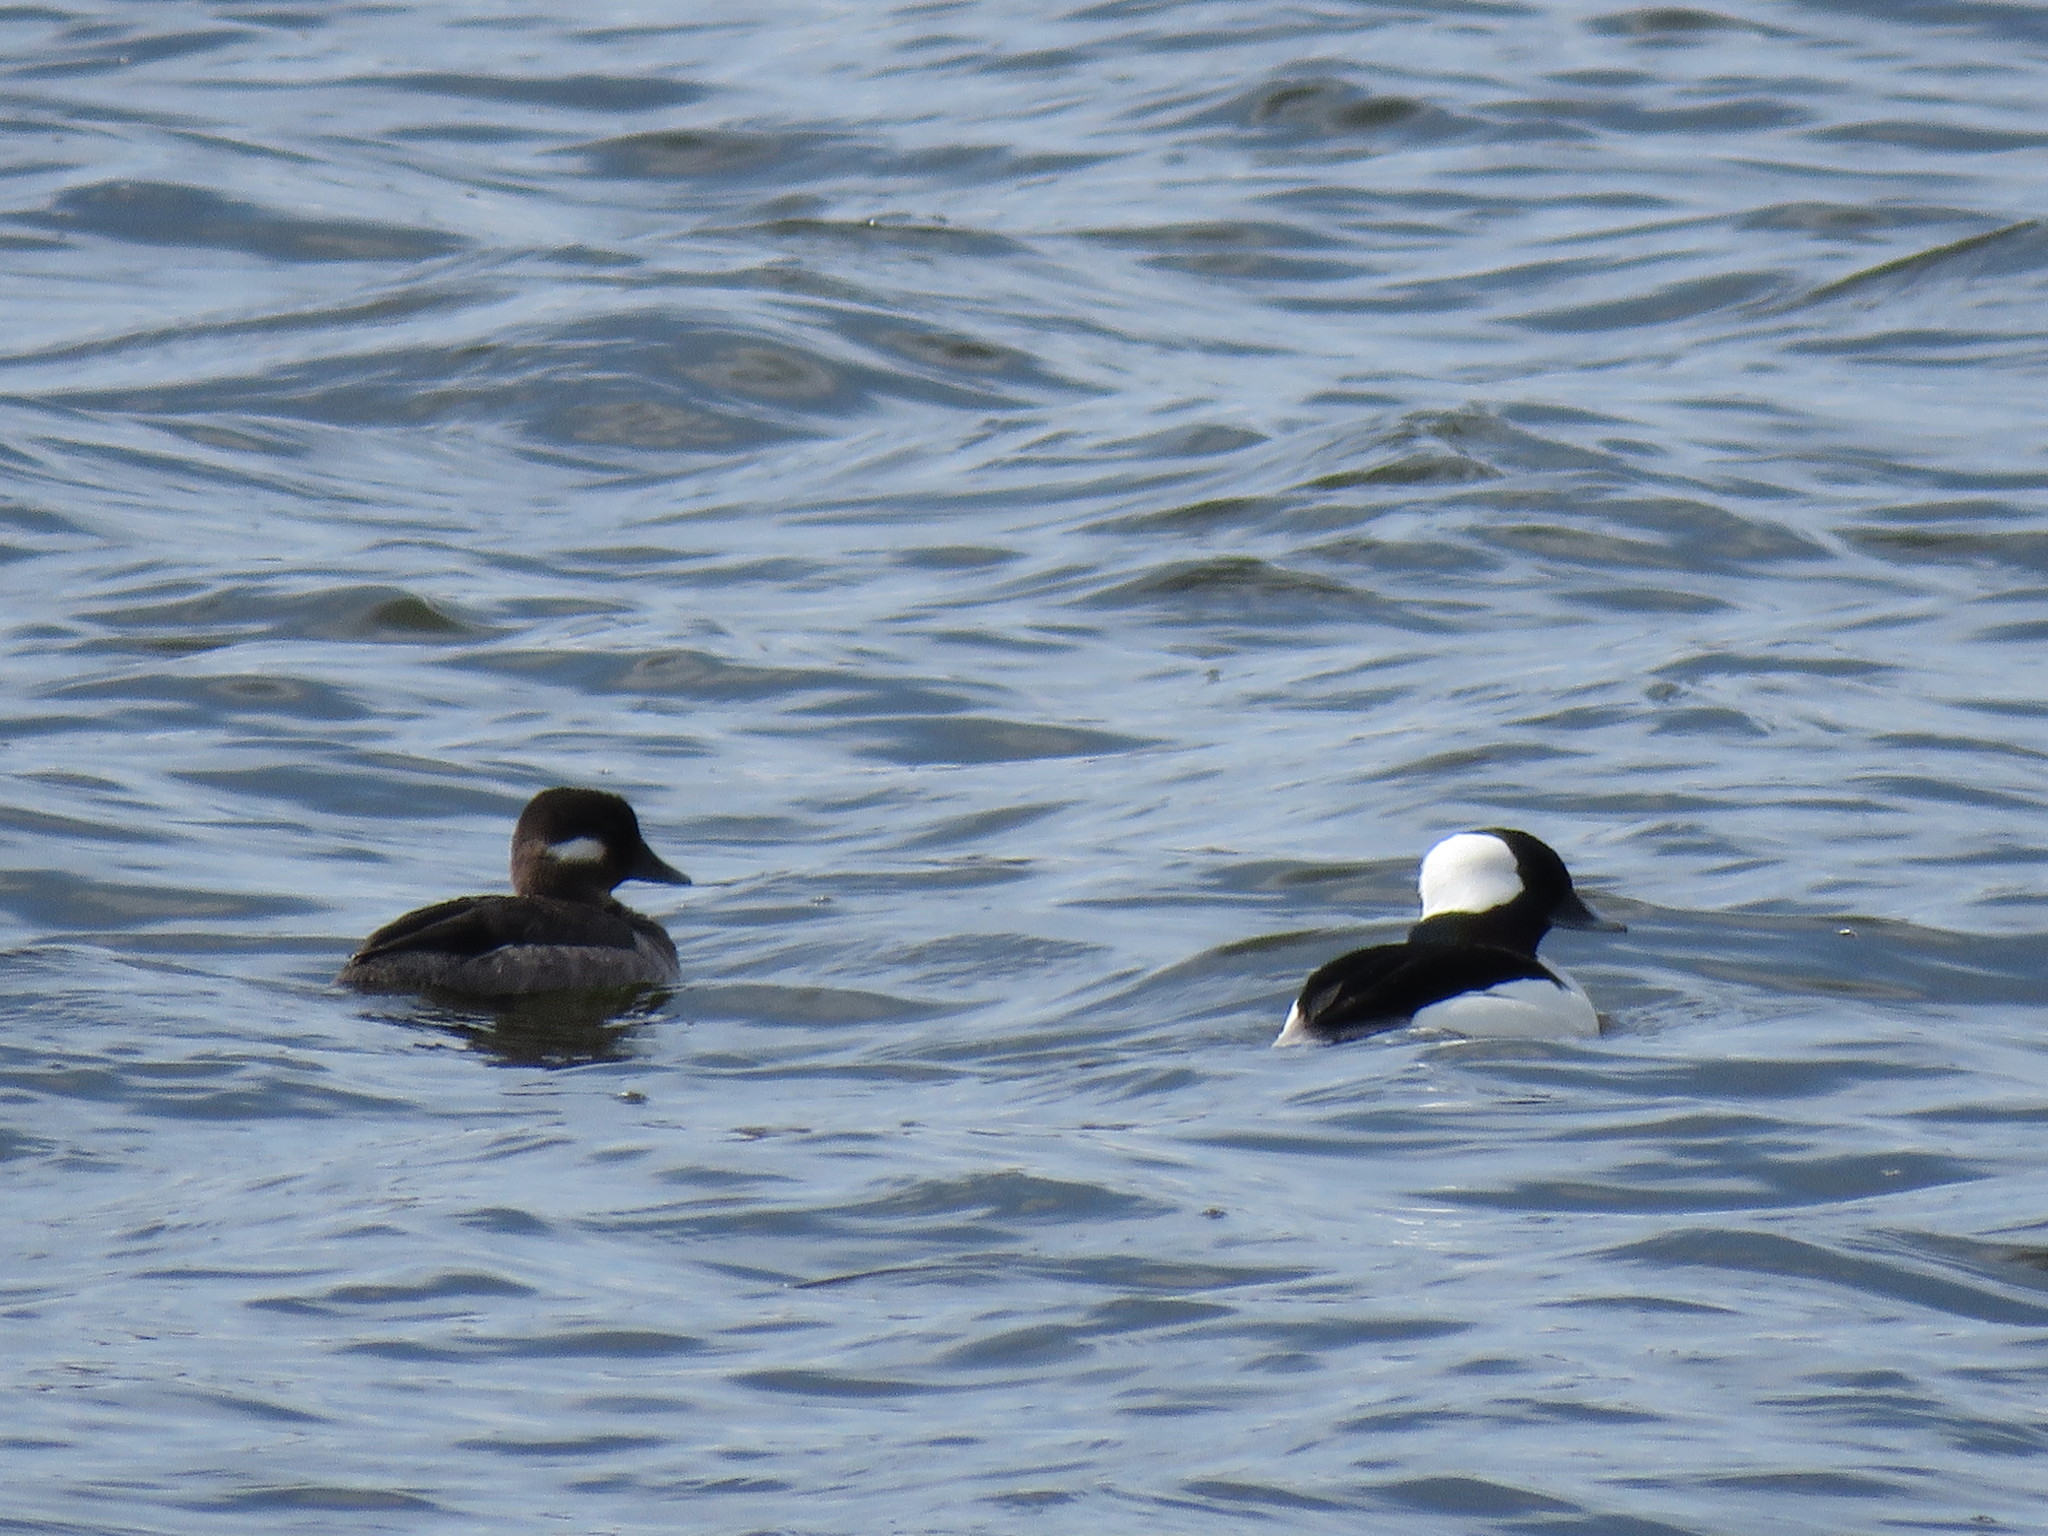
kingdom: Animalia
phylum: Chordata
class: Aves
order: Anseriformes
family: Anatidae
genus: Bucephala
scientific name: Bucephala albeola
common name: Bufflehead
